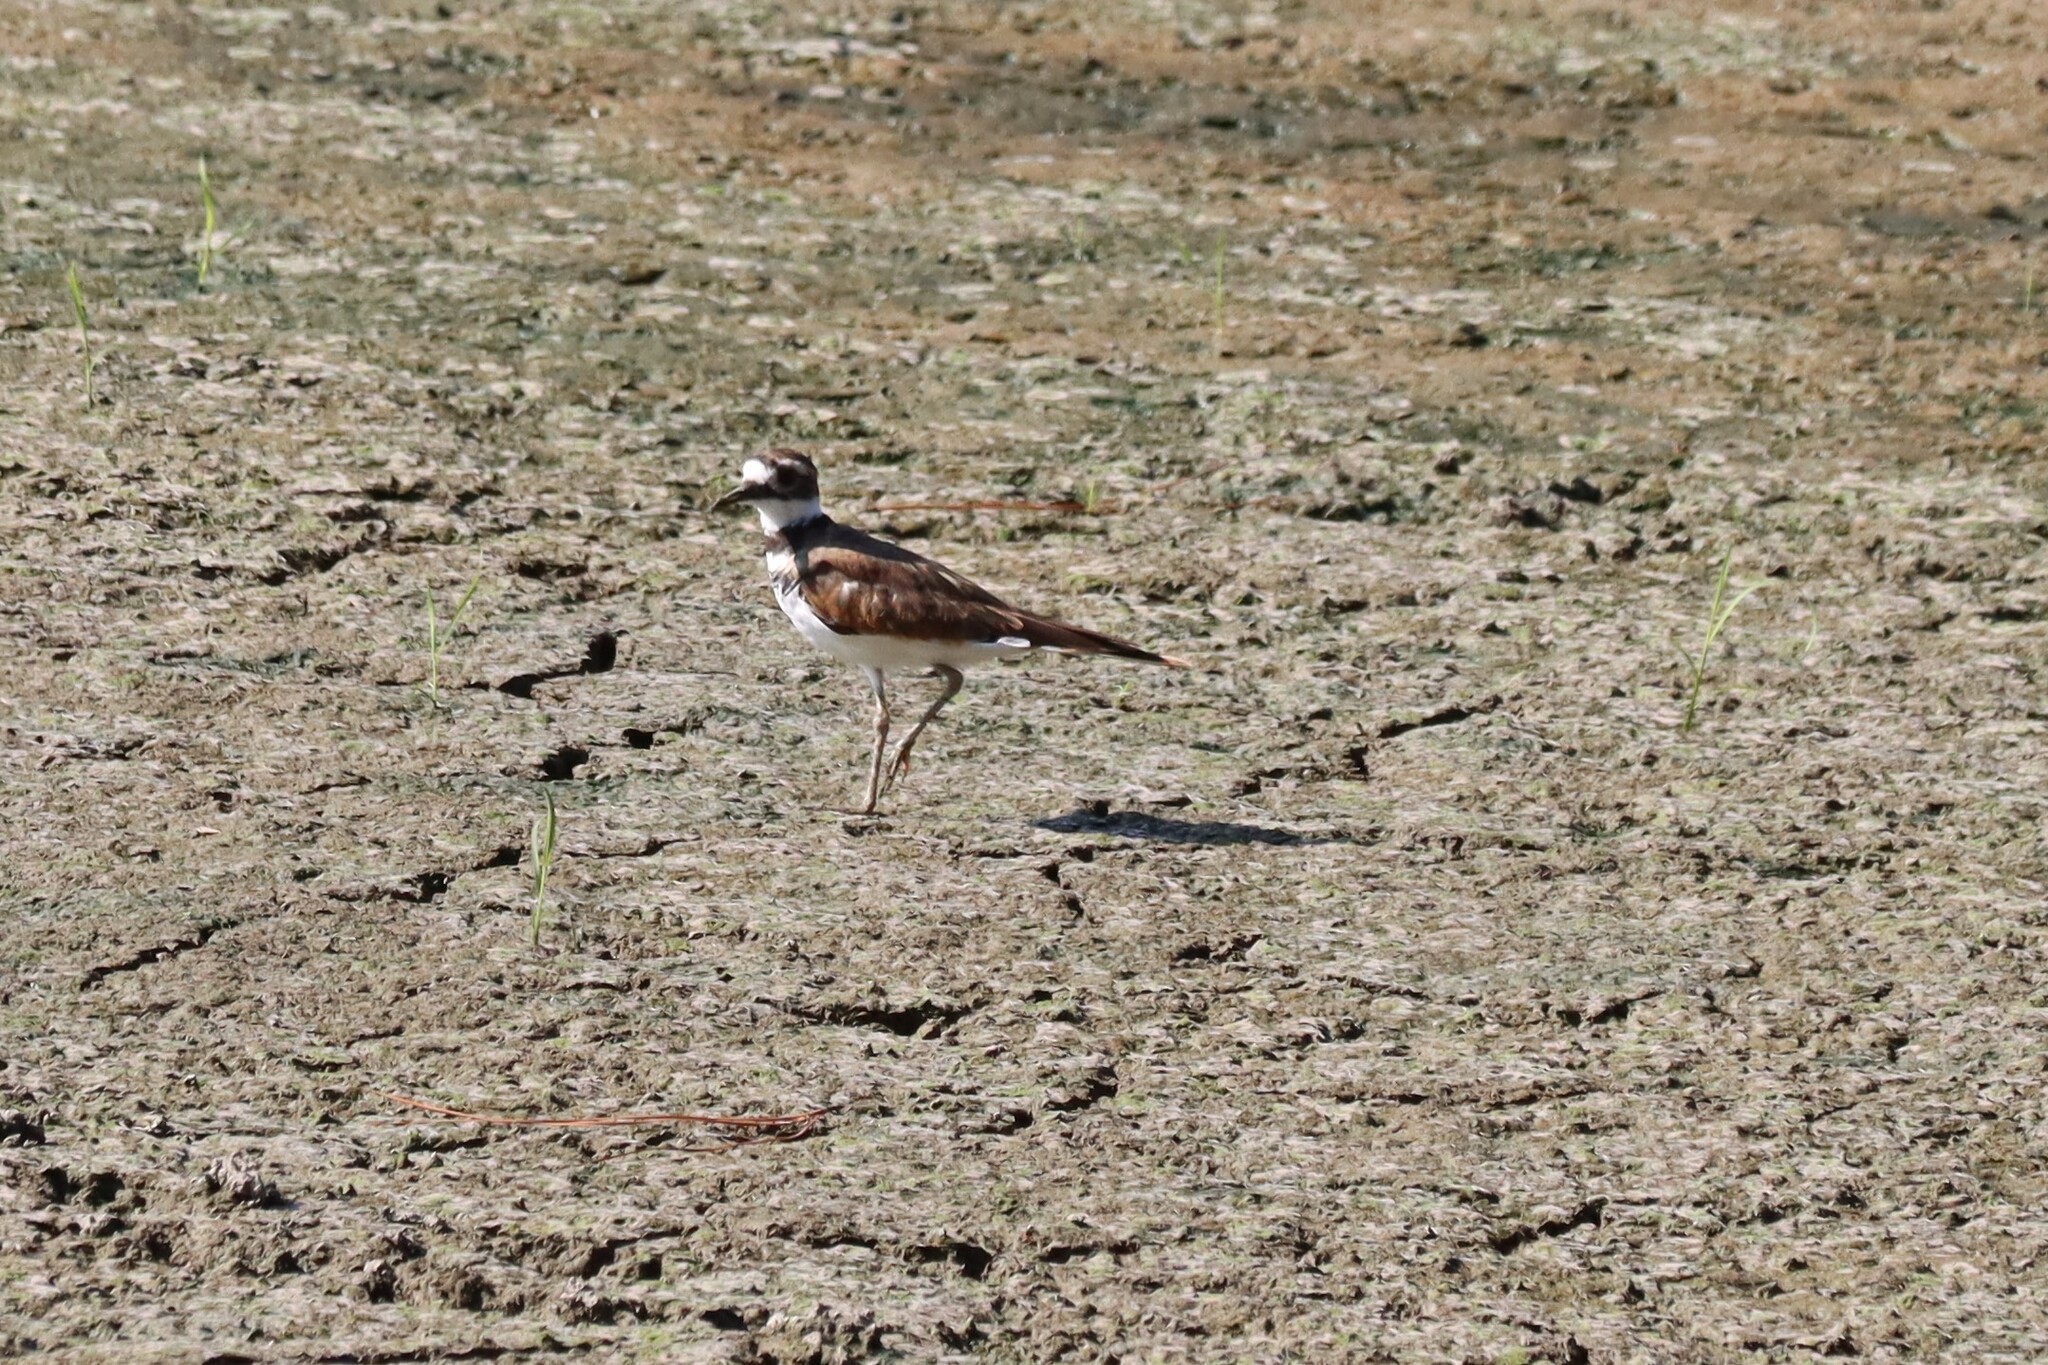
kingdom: Animalia
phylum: Chordata
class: Aves
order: Charadriiformes
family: Charadriidae
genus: Charadrius
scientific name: Charadrius vociferus
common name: Killdeer
